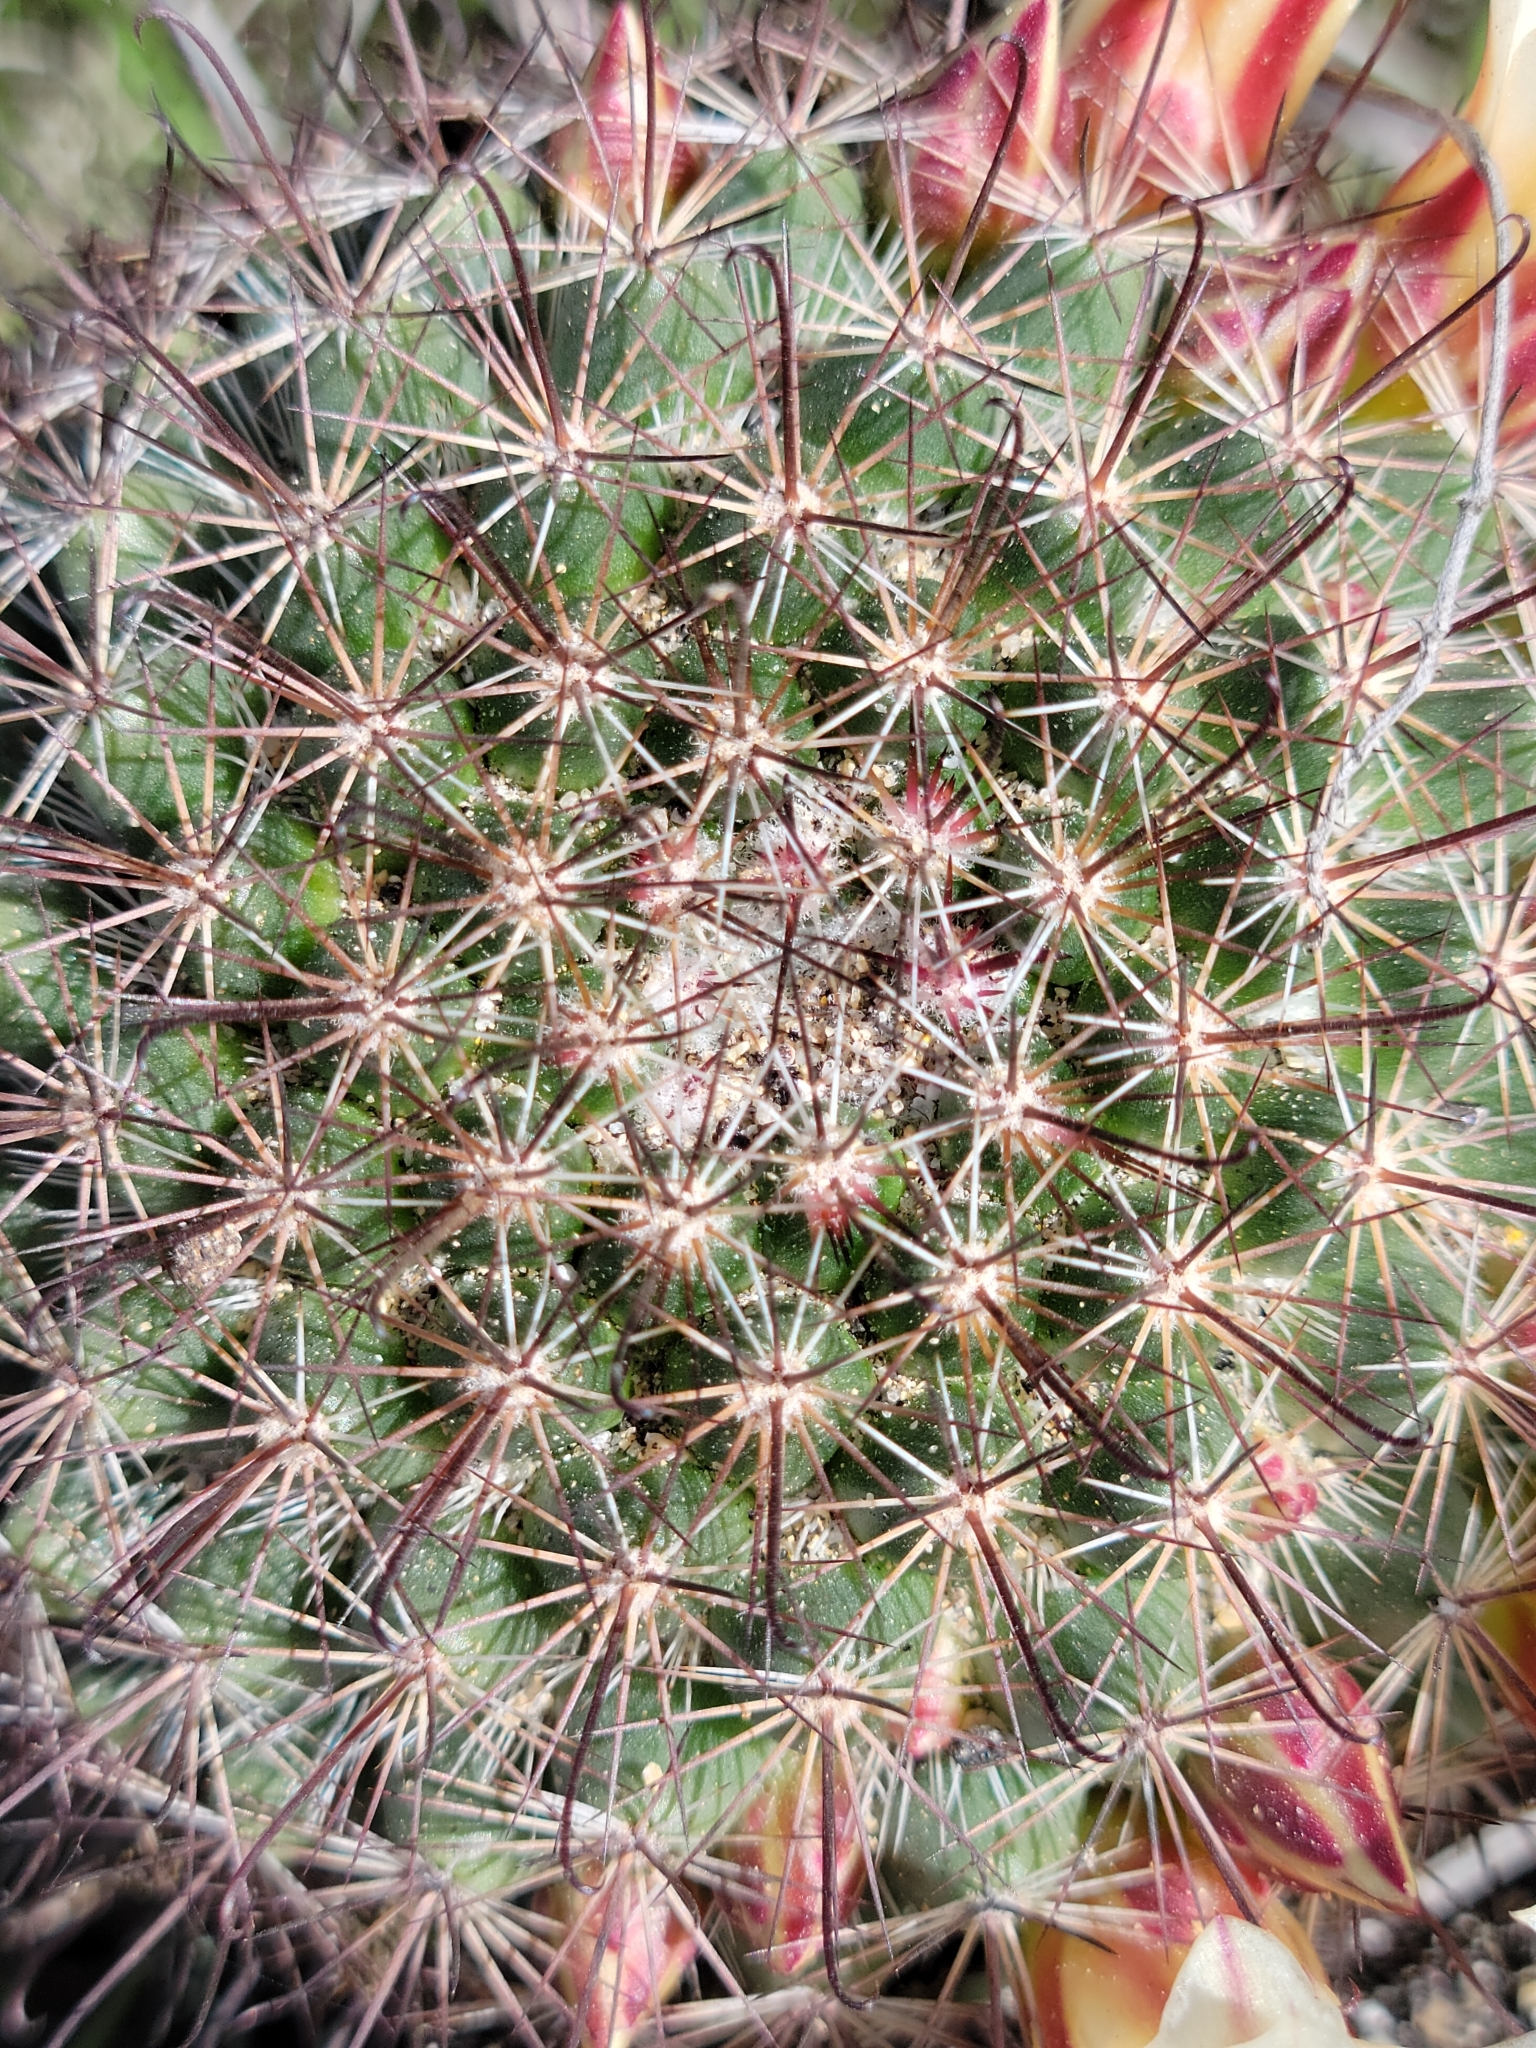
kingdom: Plantae
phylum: Tracheophyta
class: Magnoliopsida
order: Caryophyllales
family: Cactaceae
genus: Cochemiea
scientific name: Cochemiea dioica
